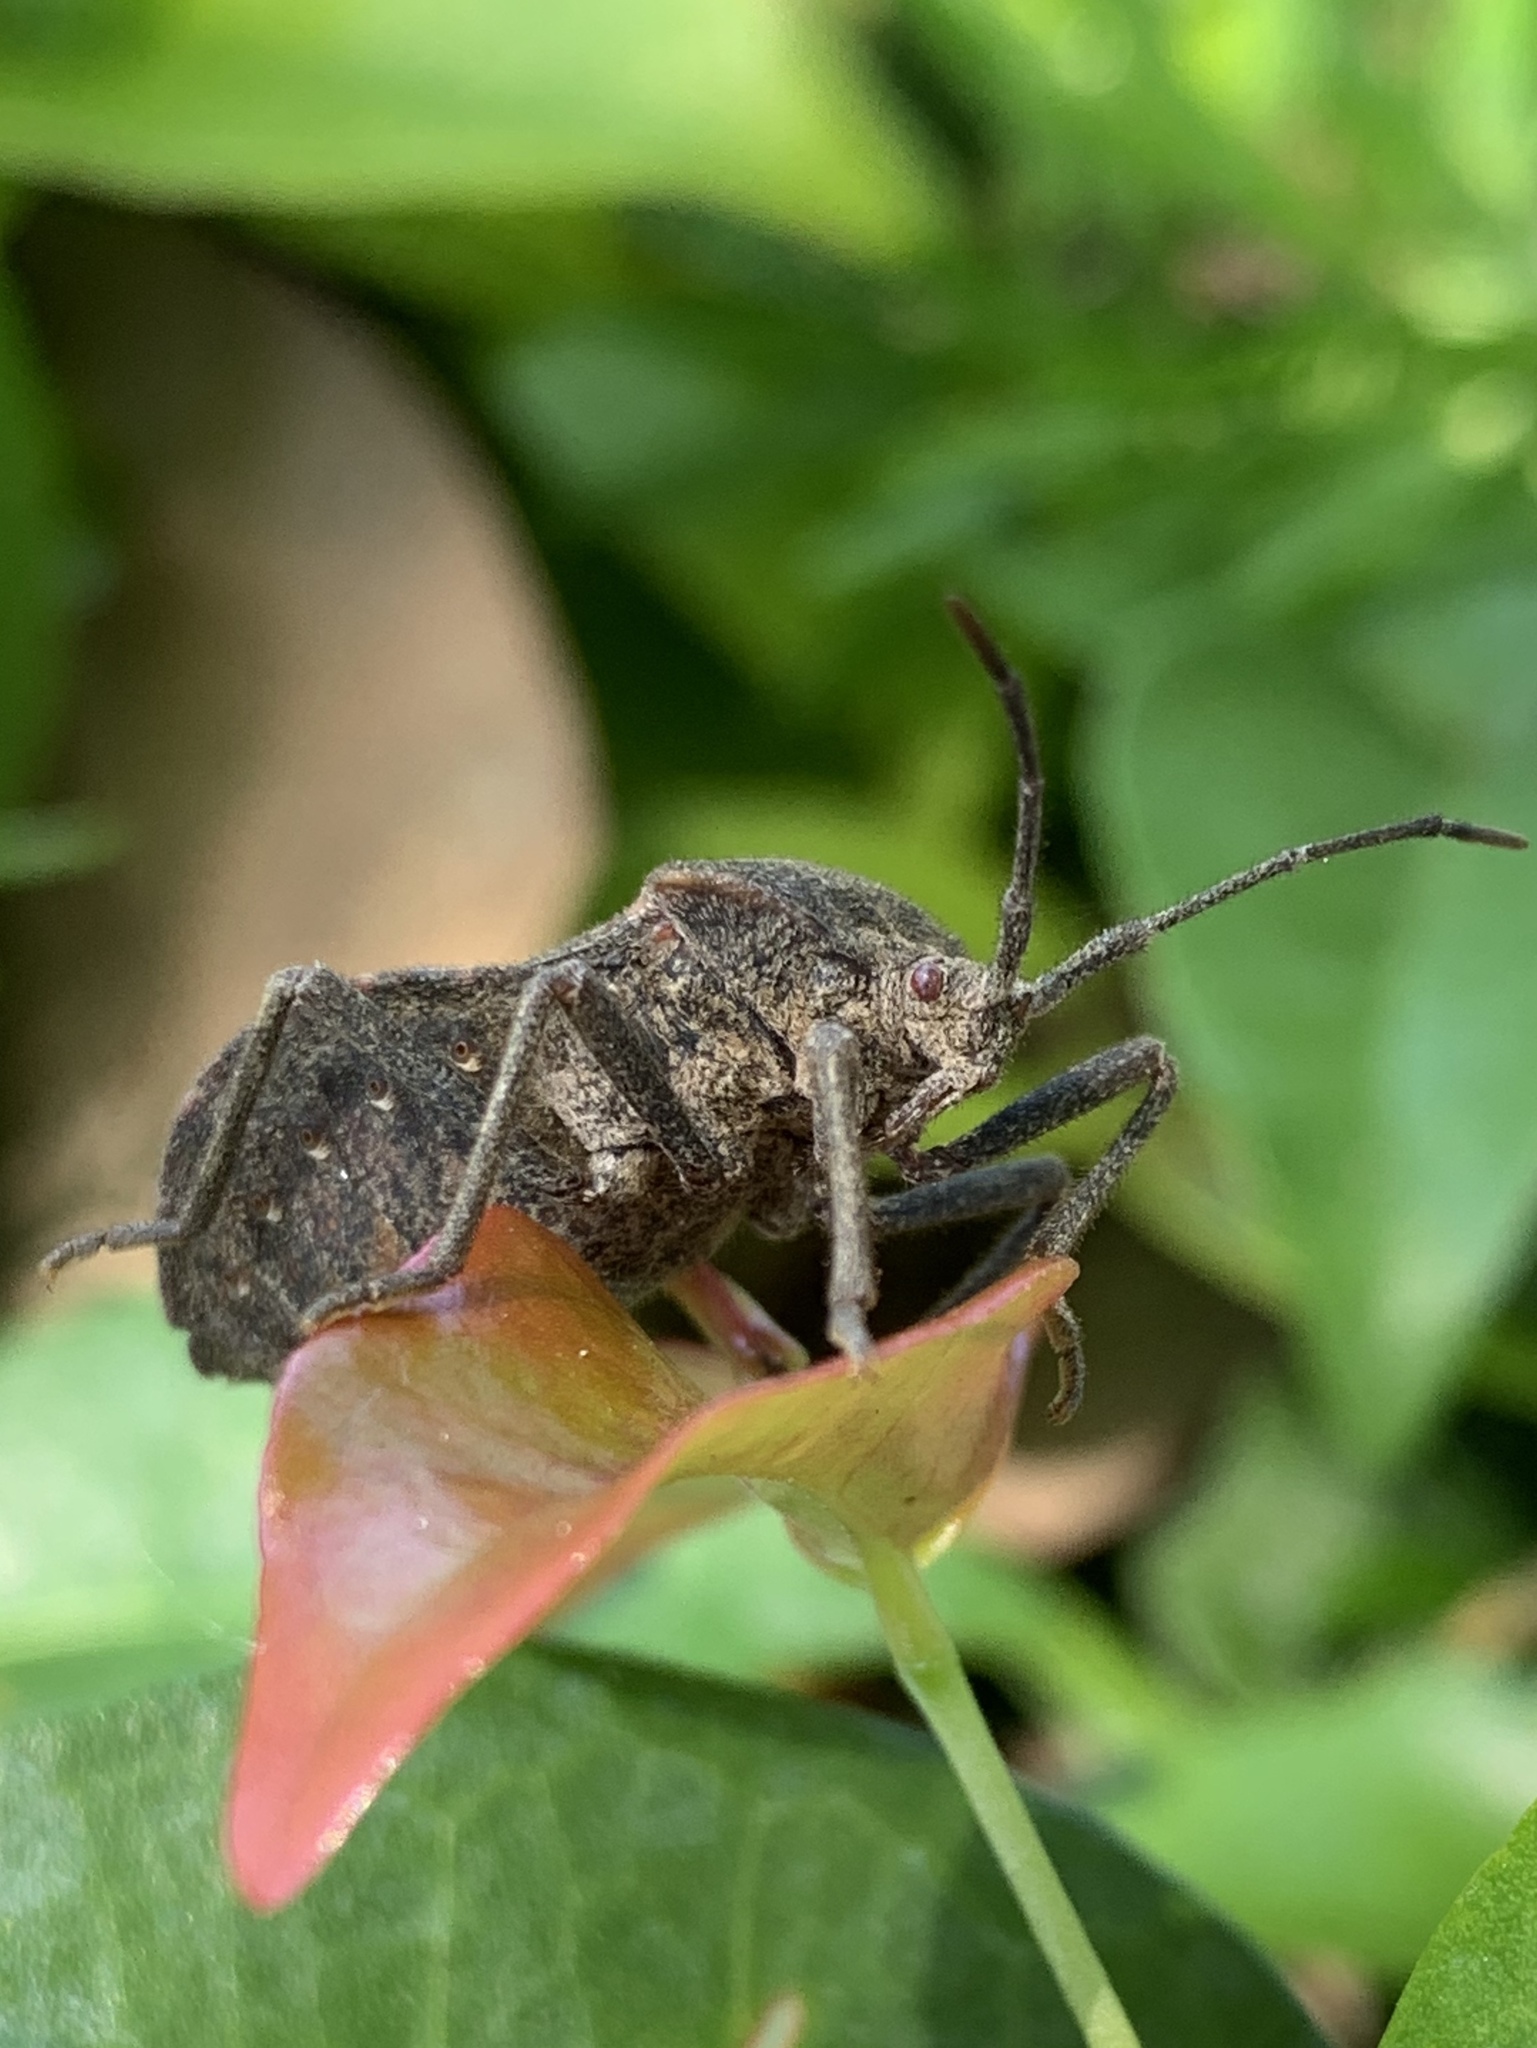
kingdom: Animalia
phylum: Arthropoda
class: Insecta
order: Hemiptera
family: Coreidae
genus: Spartocera
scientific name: Spartocera batatas
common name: Giant sweetpotato bug
